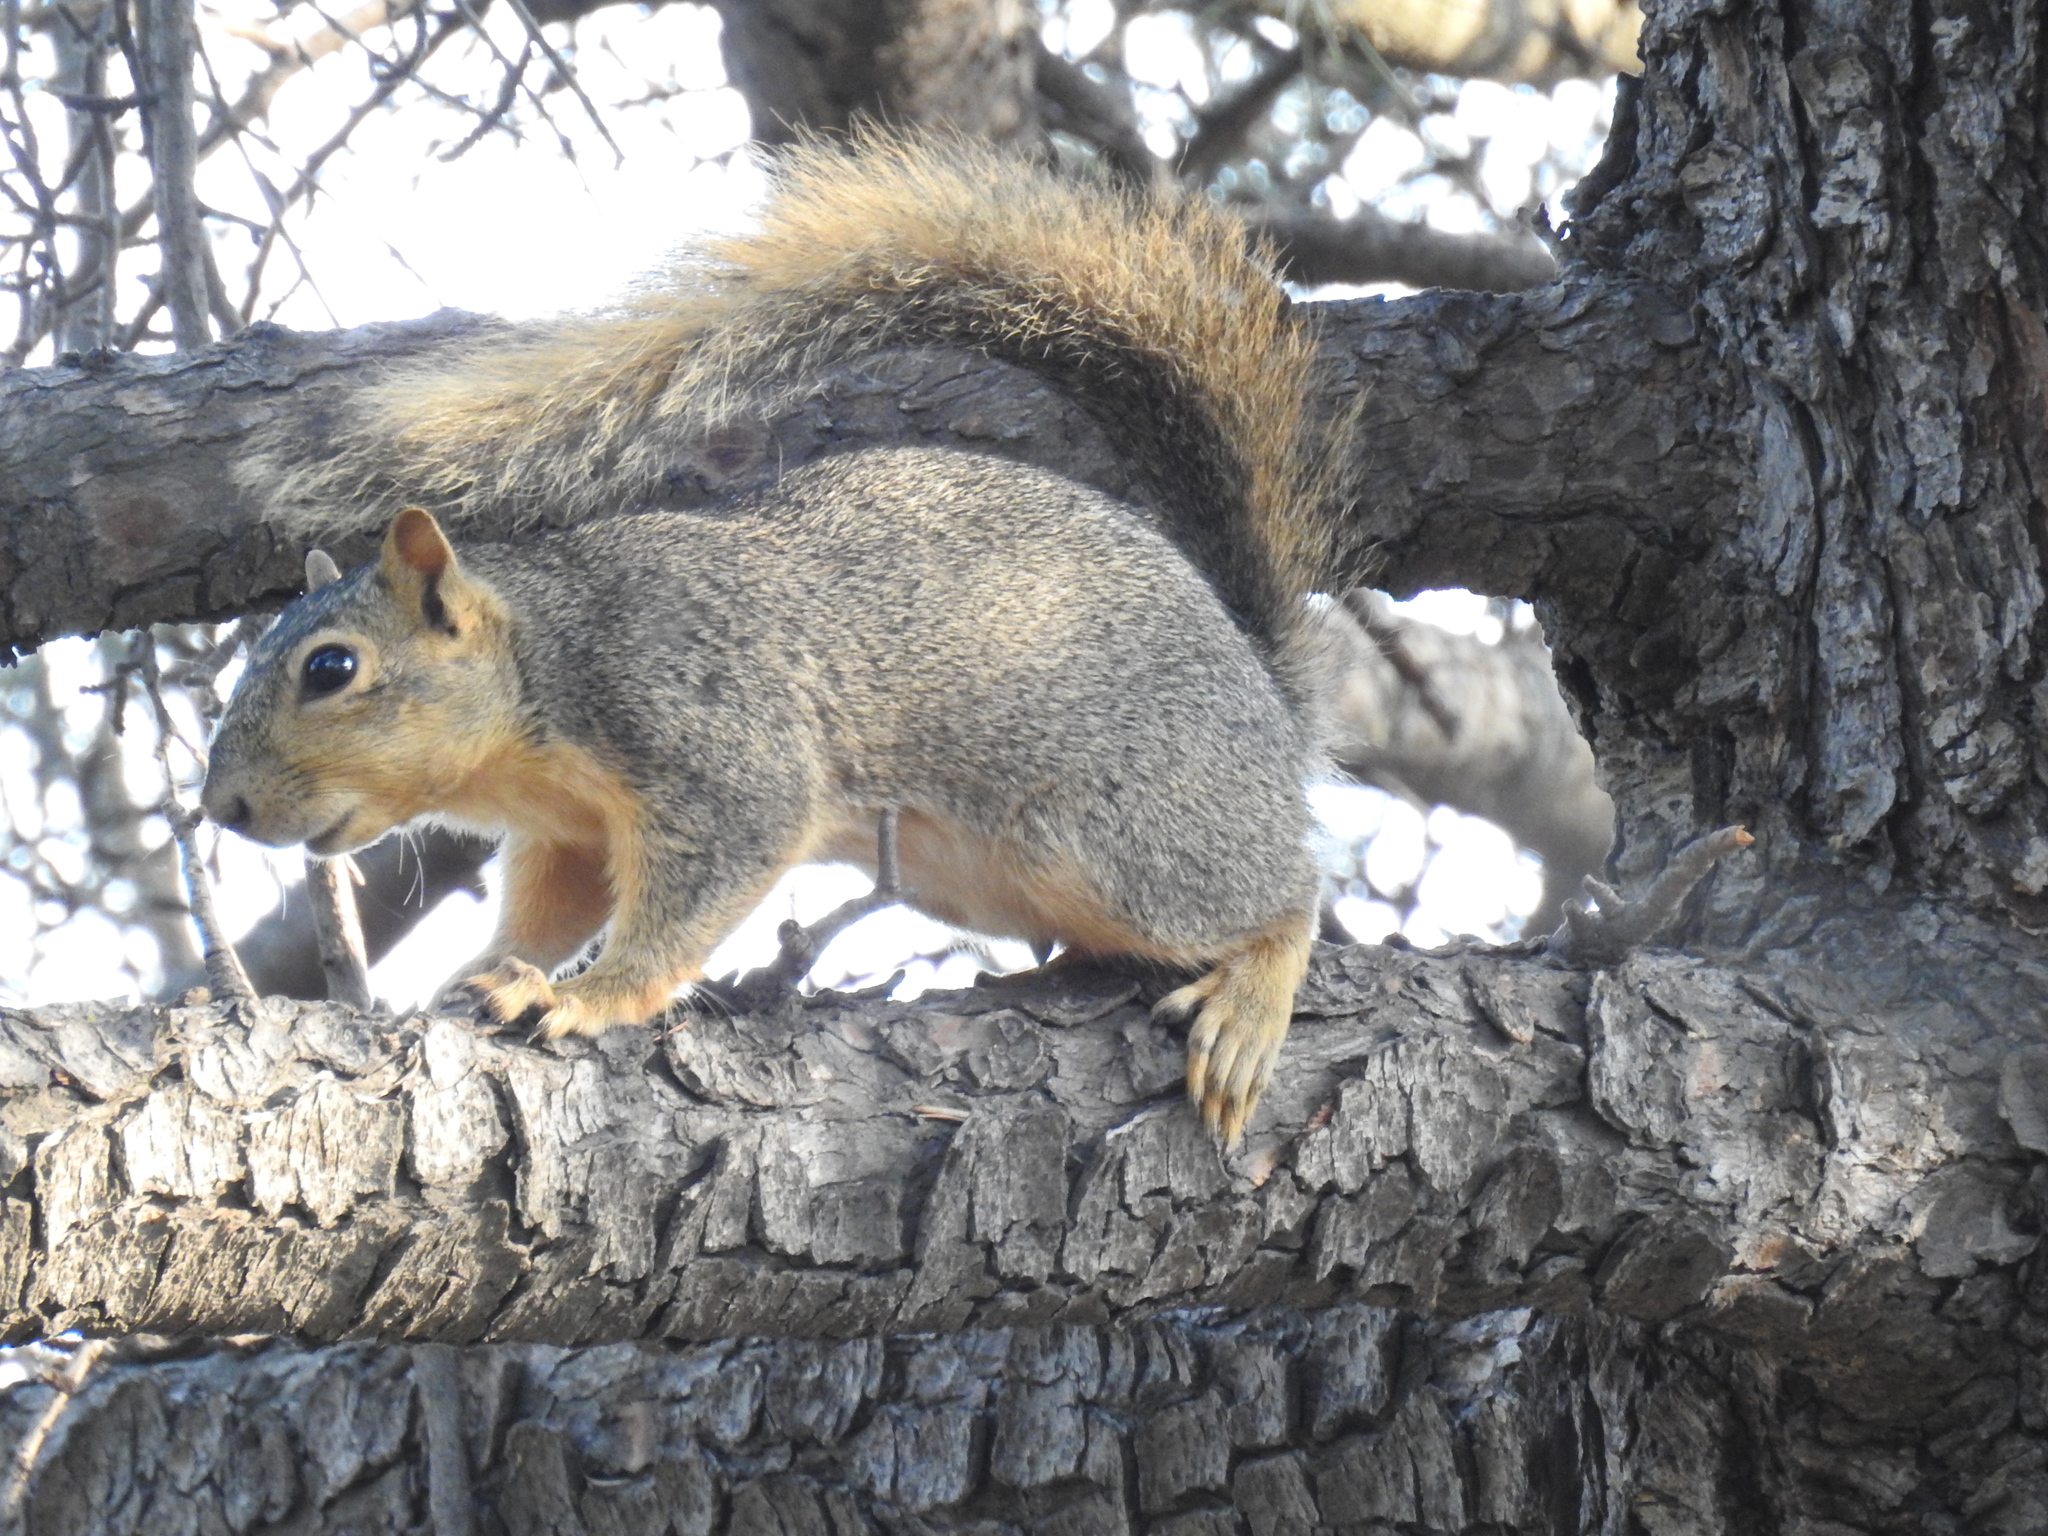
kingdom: Animalia
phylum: Chordata
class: Mammalia
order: Rodentia
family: Sciuridae
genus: Sciurus
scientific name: Sciurus niger
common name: Fox squirrel
